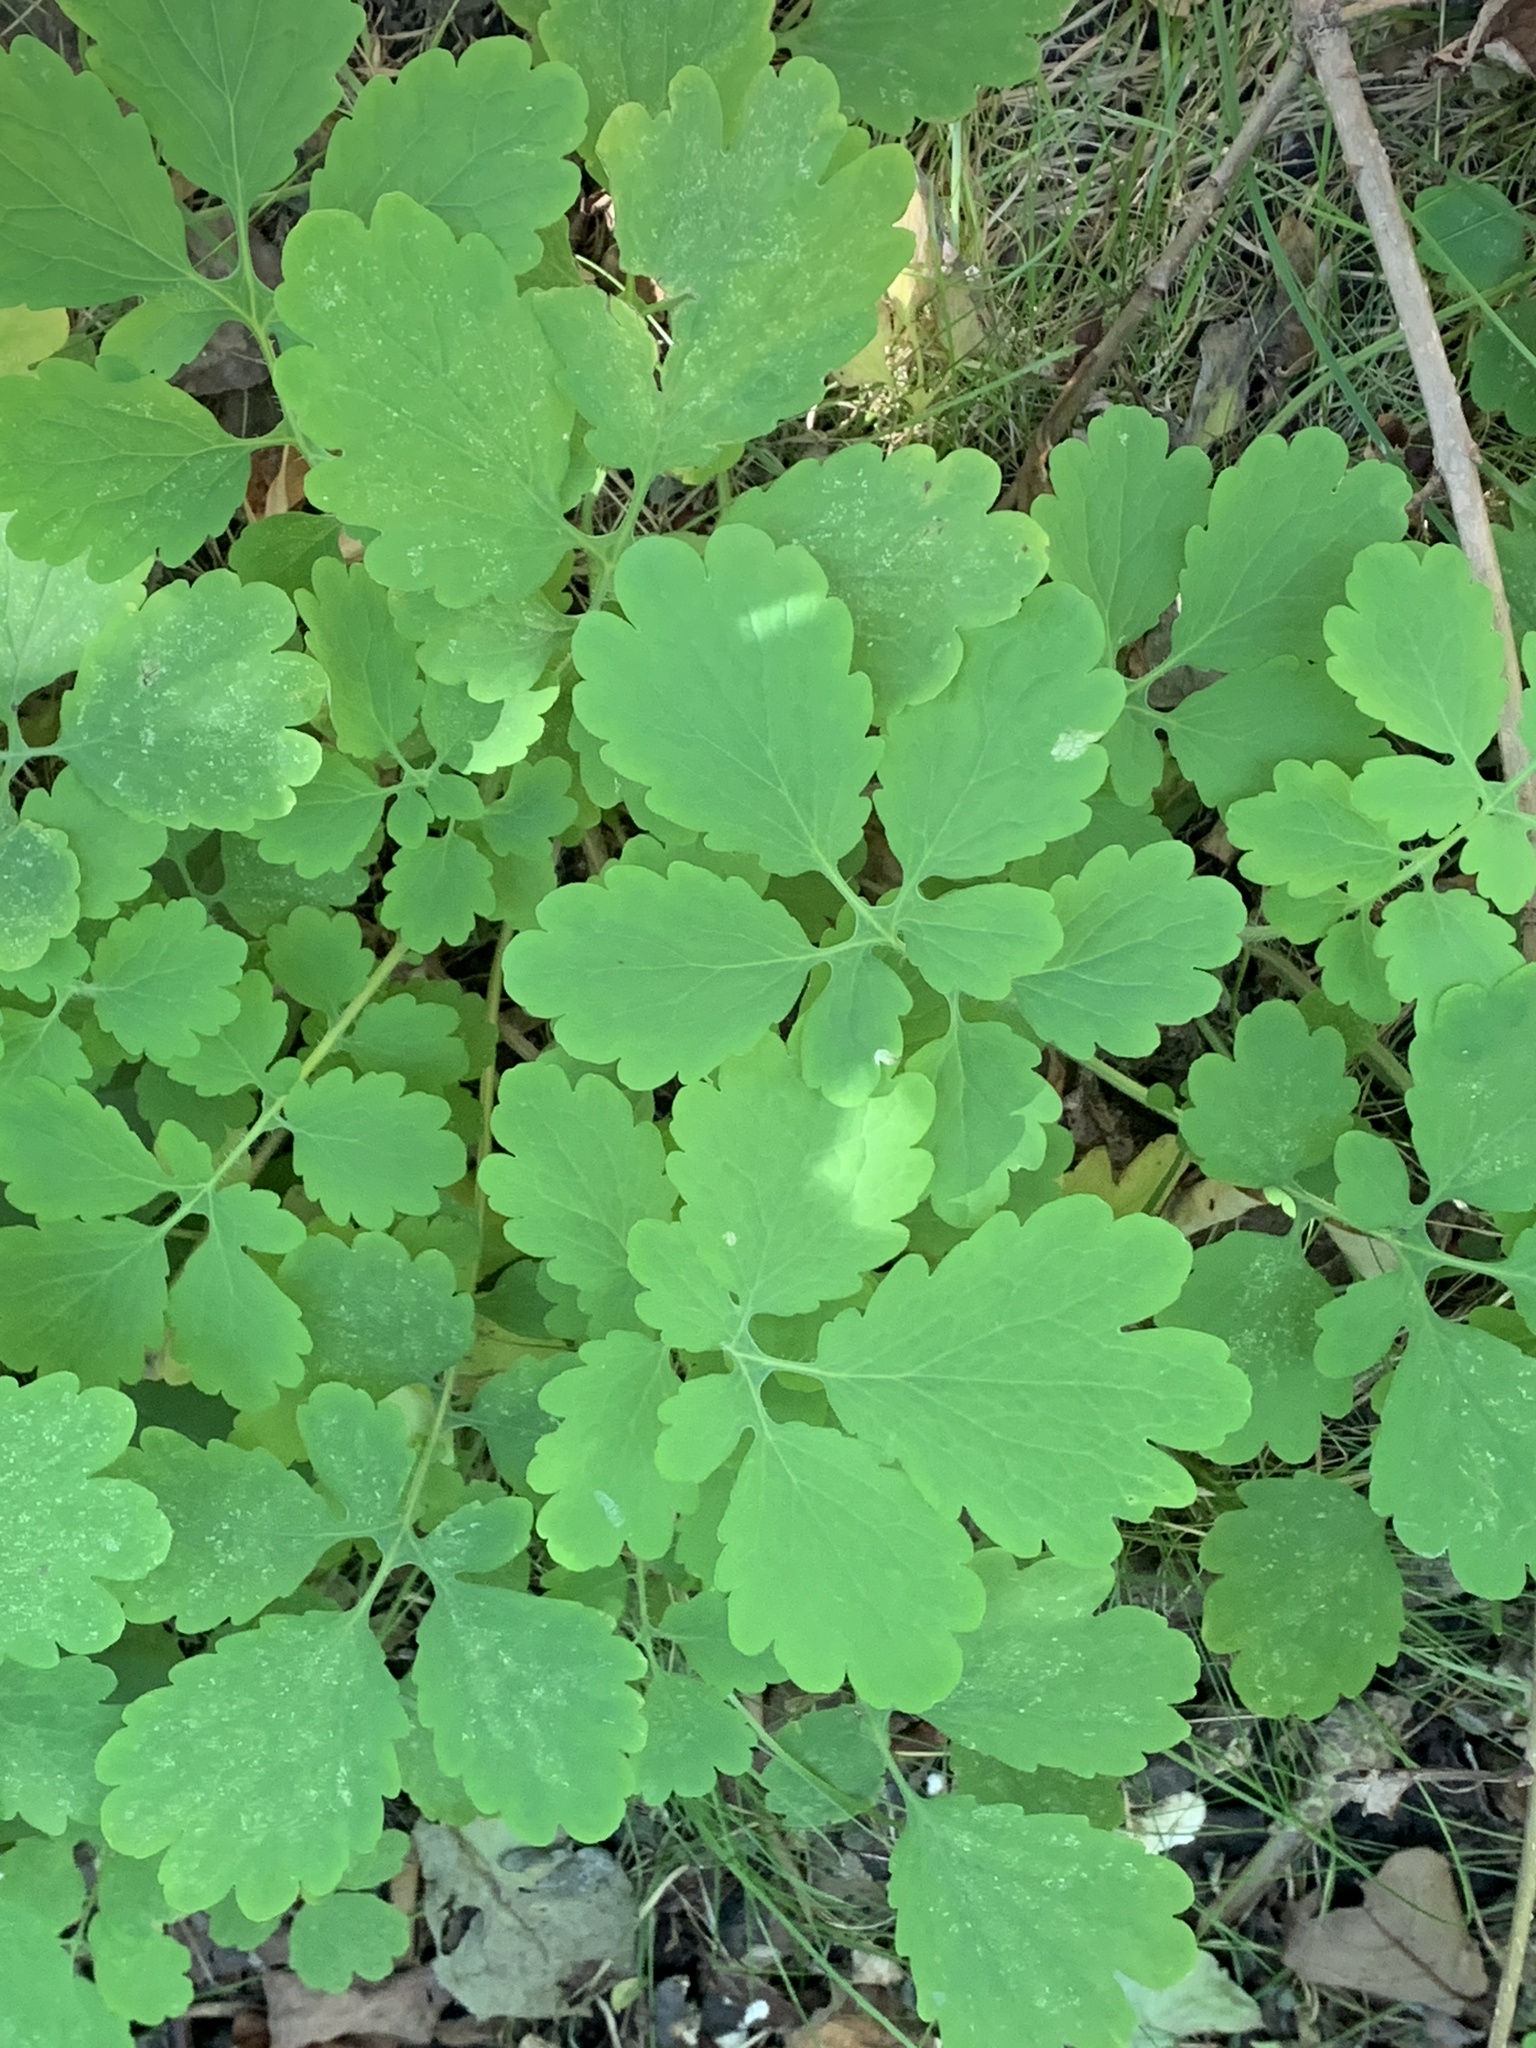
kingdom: Plantae
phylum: Tracheophyta
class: Magnoliopsida
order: Ranunculales
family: Papaveraceae
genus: Chelidonium
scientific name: Chelidonium majus
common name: Greater celandine
